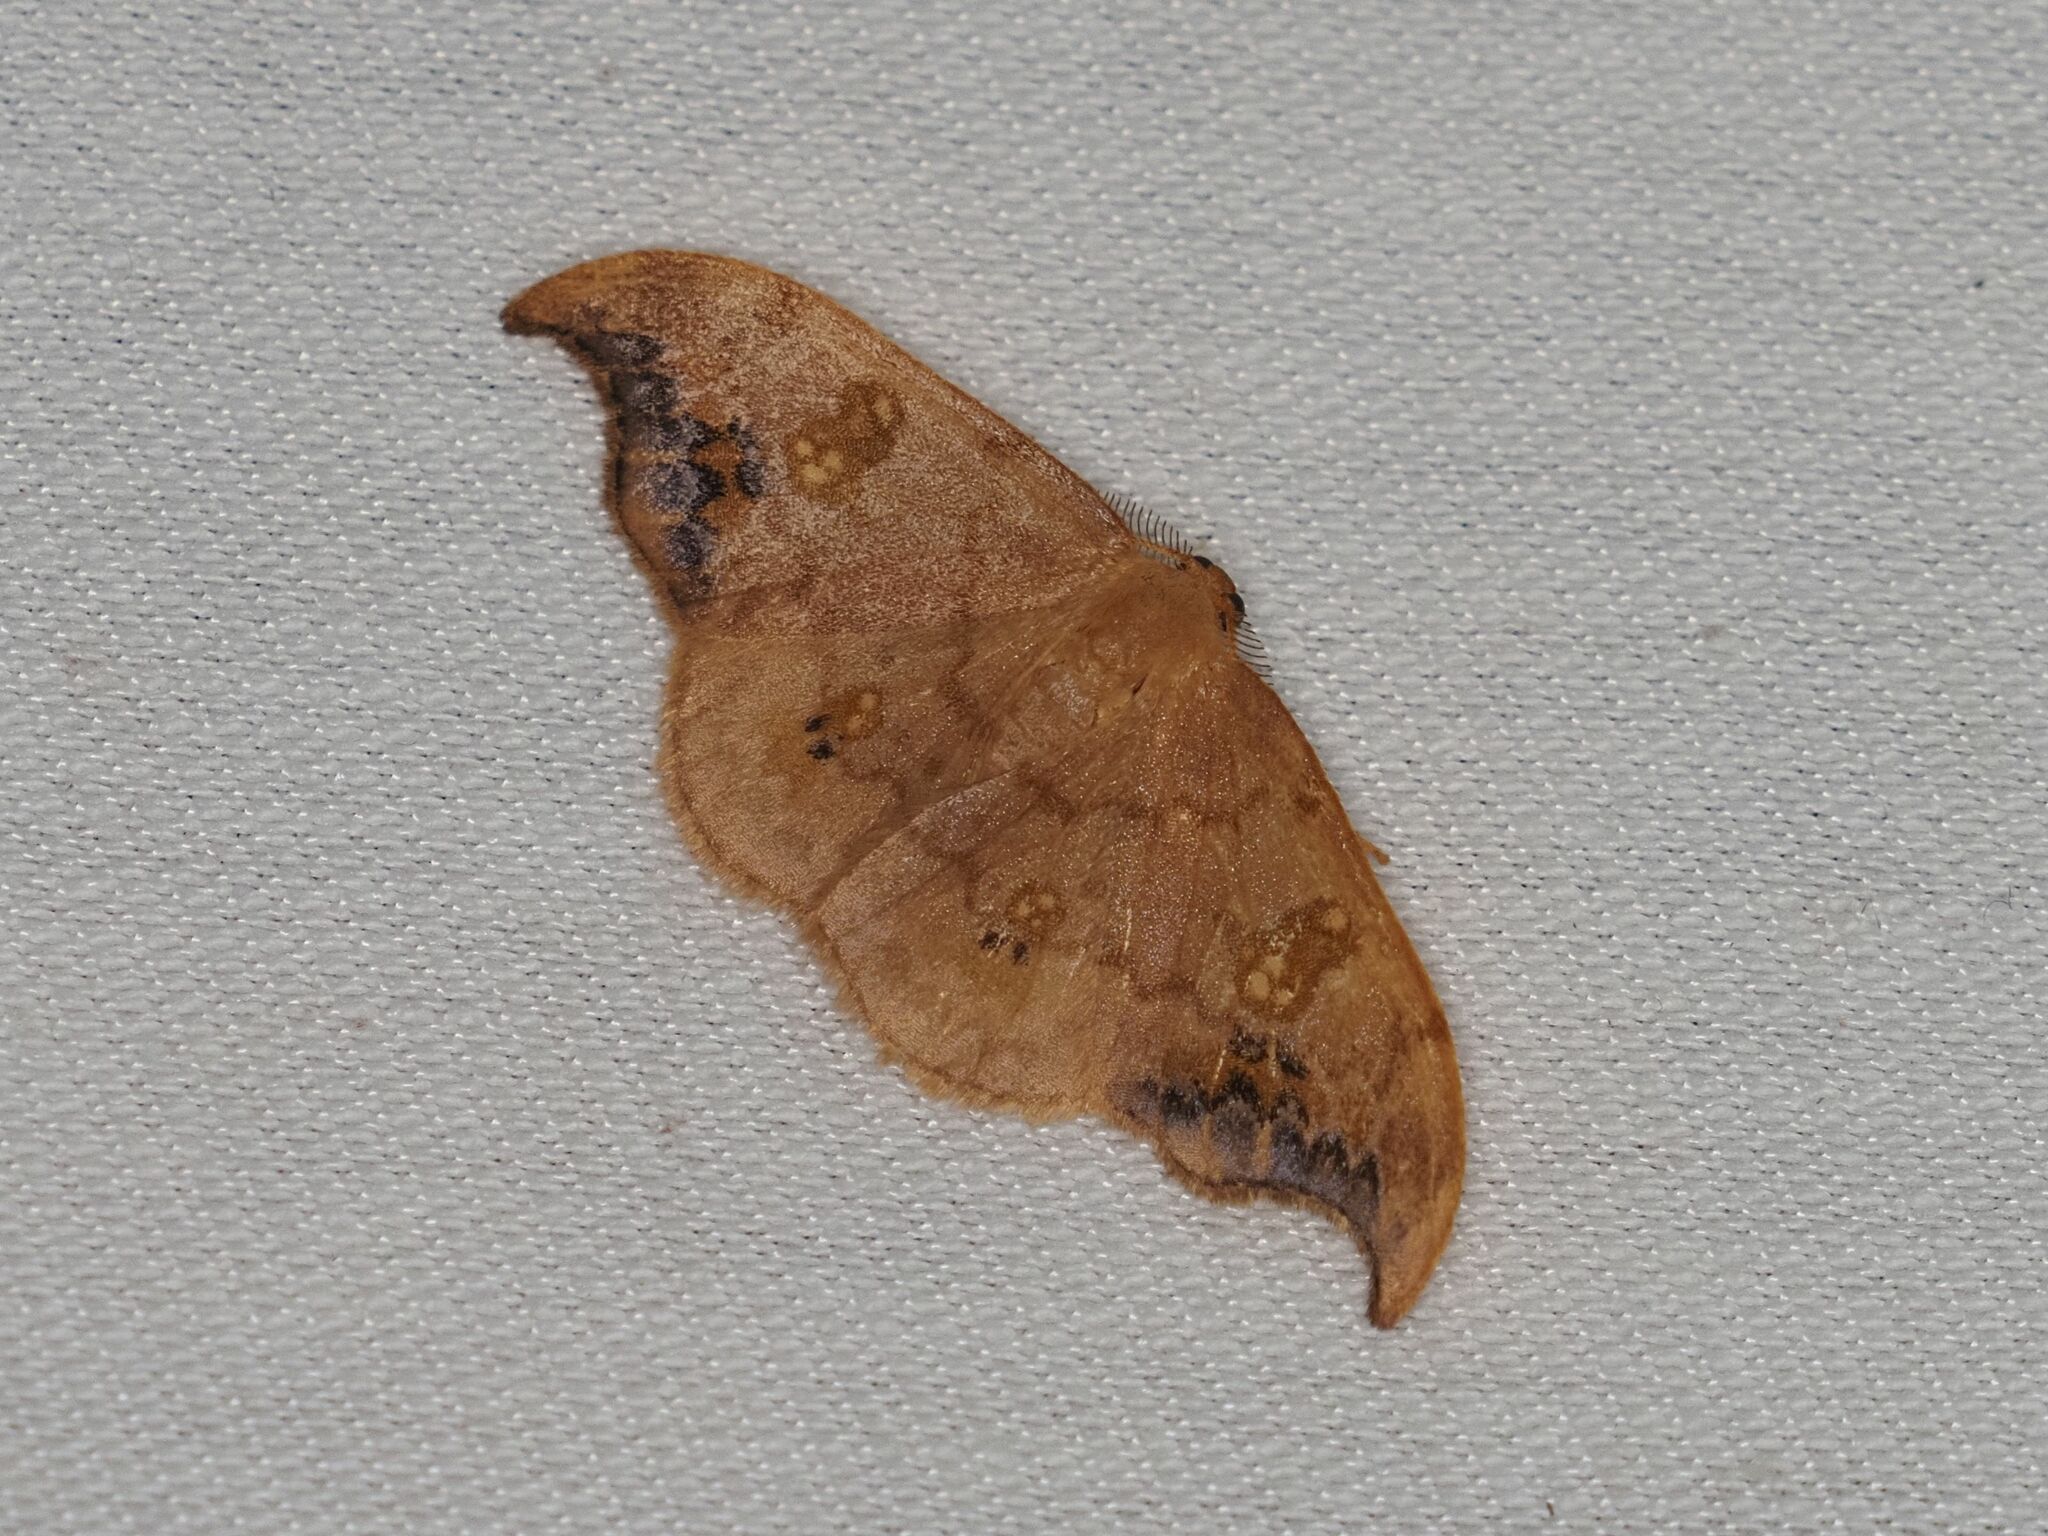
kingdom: Animalia
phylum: Arthropoda
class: Insecta
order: Lepidoptera
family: Drepanidae
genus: Sabra
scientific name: Sabra harpagula
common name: Scarce hook-tip
